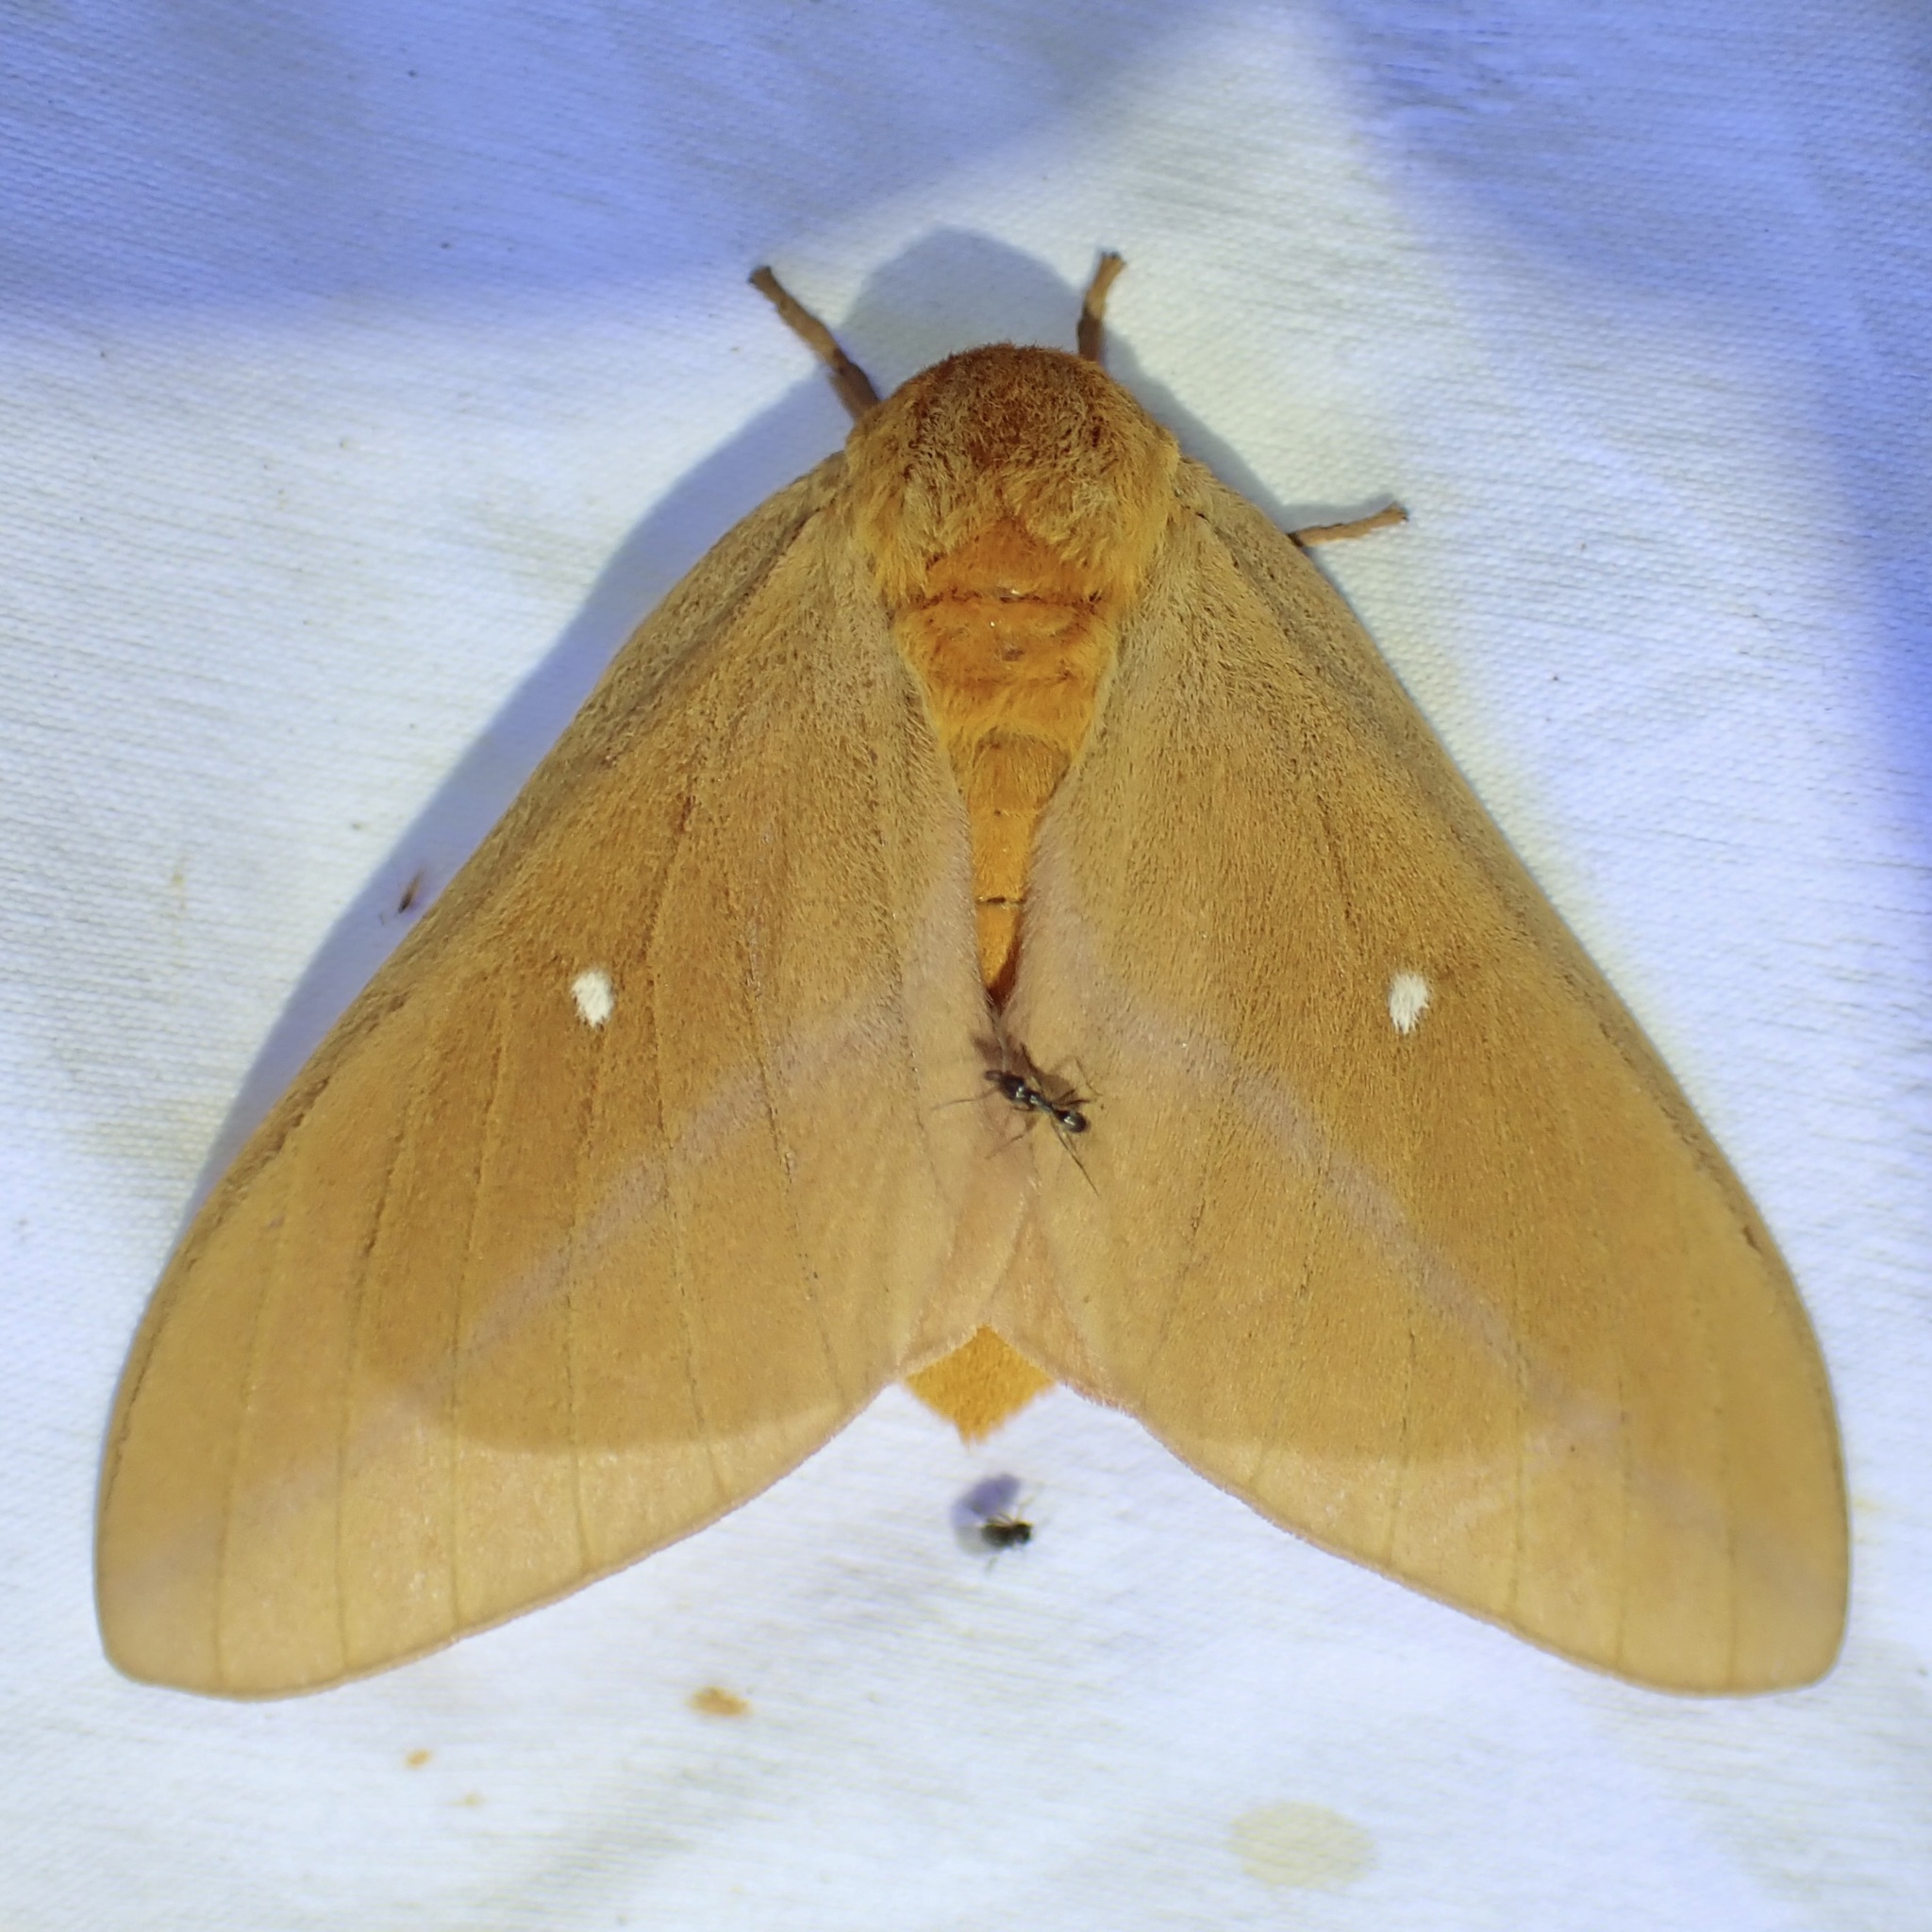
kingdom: Animalia
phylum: Arthropoda
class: Insecta
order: Lepidoptera
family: Saturniidae
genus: Anisota
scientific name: Anisota oslari
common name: Oslar's oakworm moth
